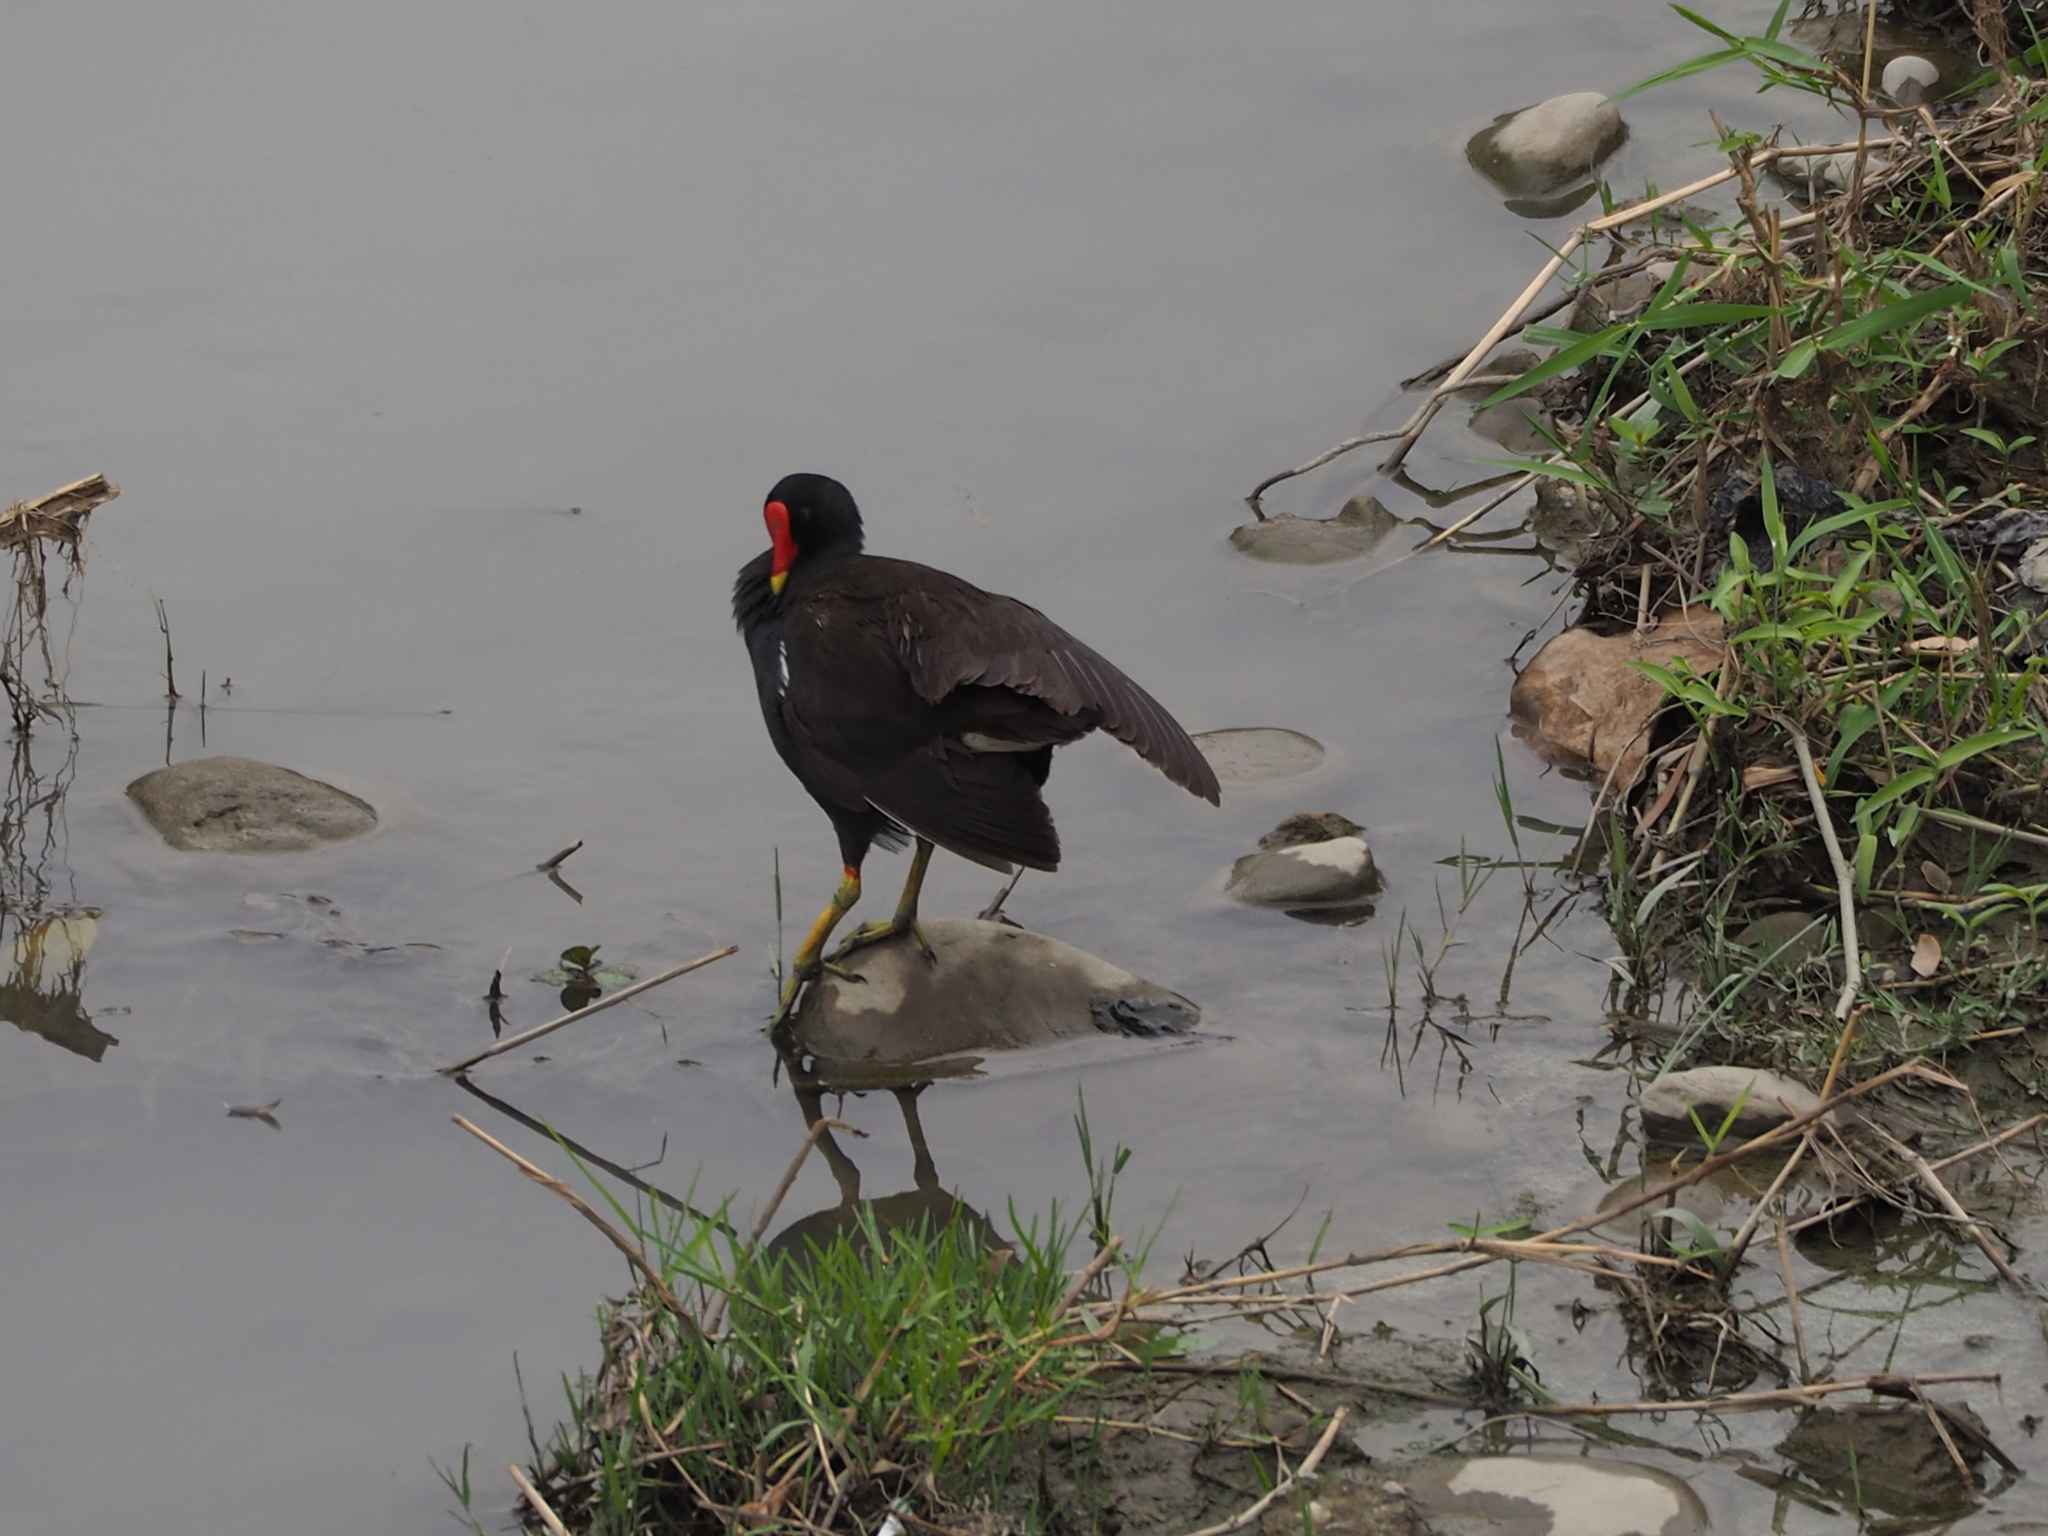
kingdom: Animalia
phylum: Chordata
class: Aves
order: Gruiformes
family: Rallidae
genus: Gallinula
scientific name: Gallinula chloropus
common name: Common moorhen
